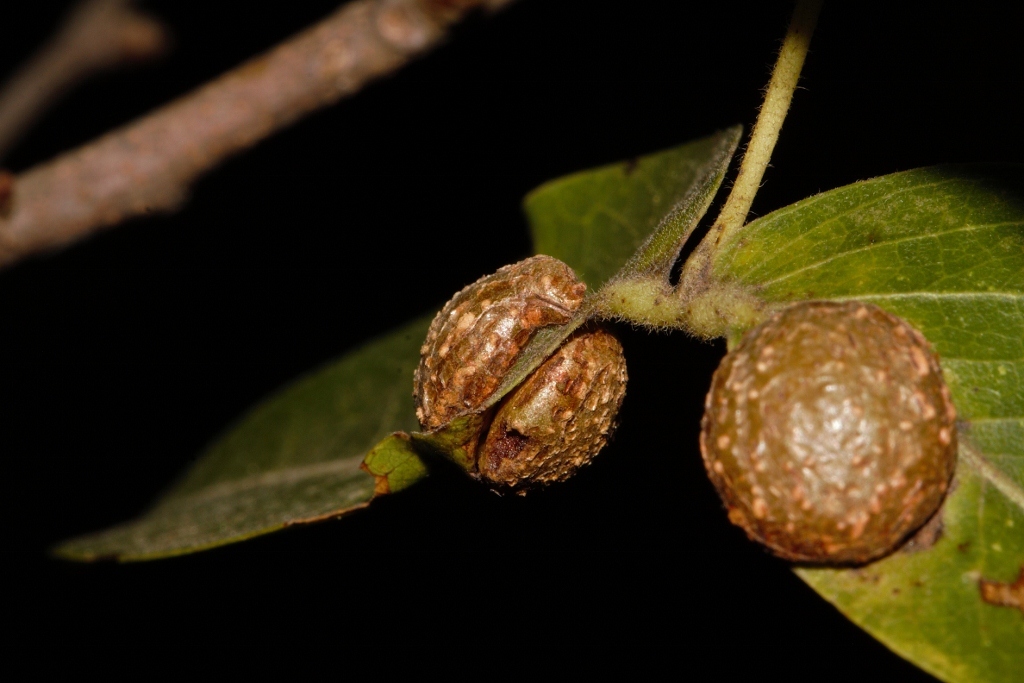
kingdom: Plantae
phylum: Tracheophyta
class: Magnoliopsida
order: Fabales
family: Fabaceae
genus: Brachystegia
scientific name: Brachystegia spiciformis
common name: Zebrawood
